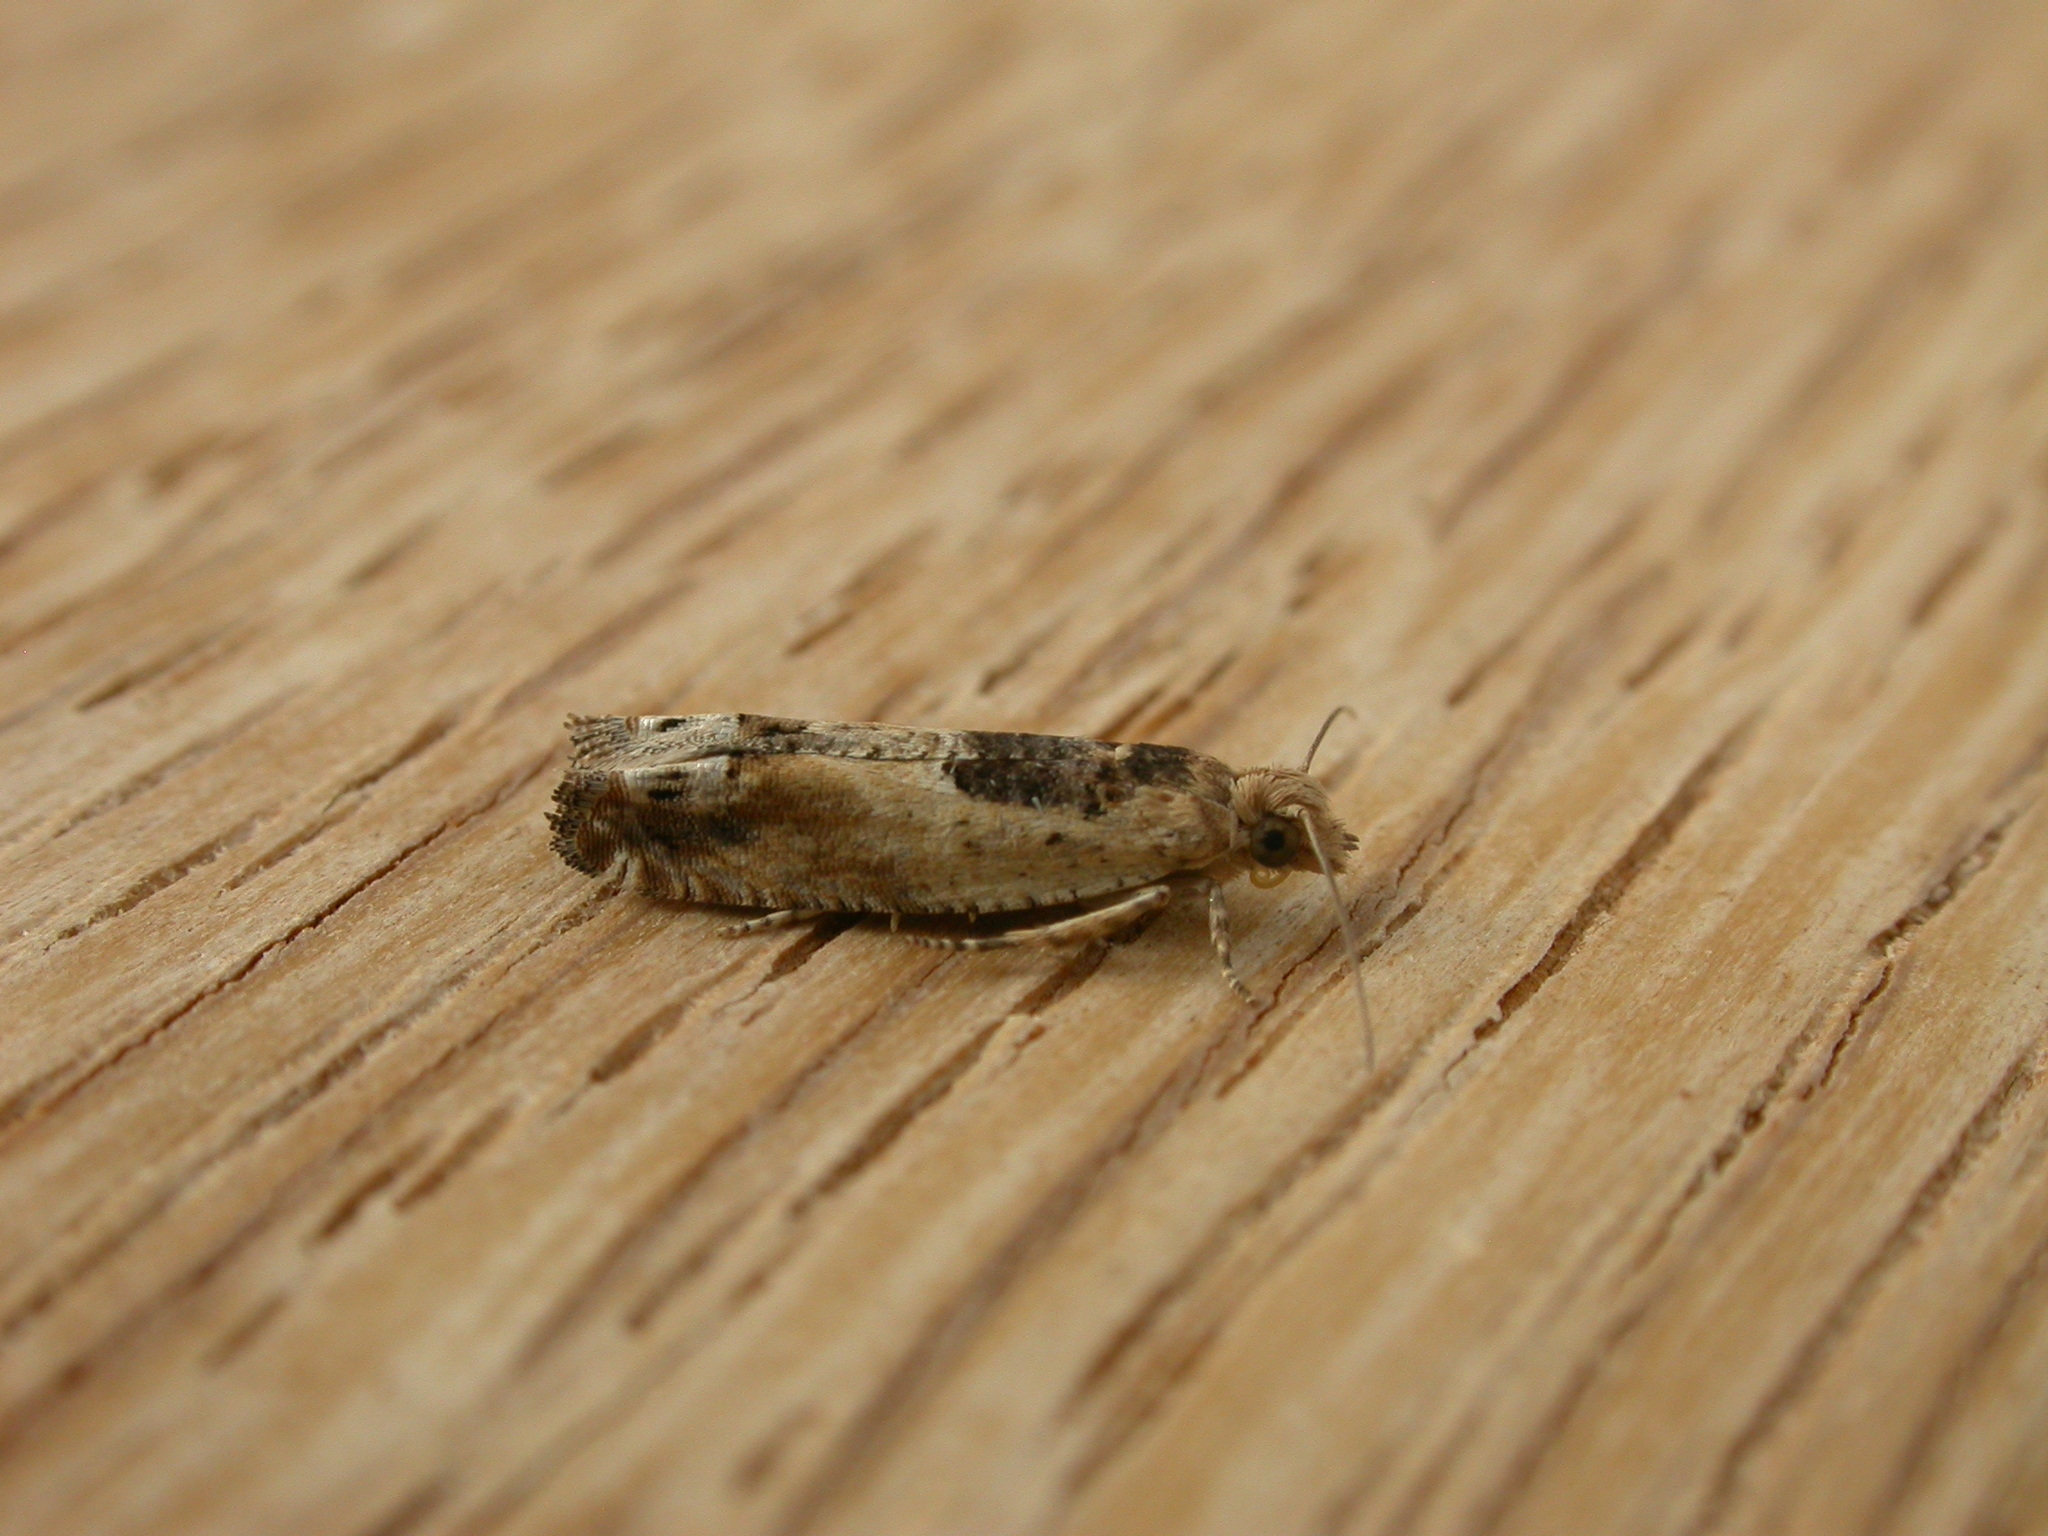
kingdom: Animalia
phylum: Arthropoda
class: Insecta
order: Lepidoptera
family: Tortricidae
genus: Crocidosema
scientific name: Crocidosema plebejana
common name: Southern bell
